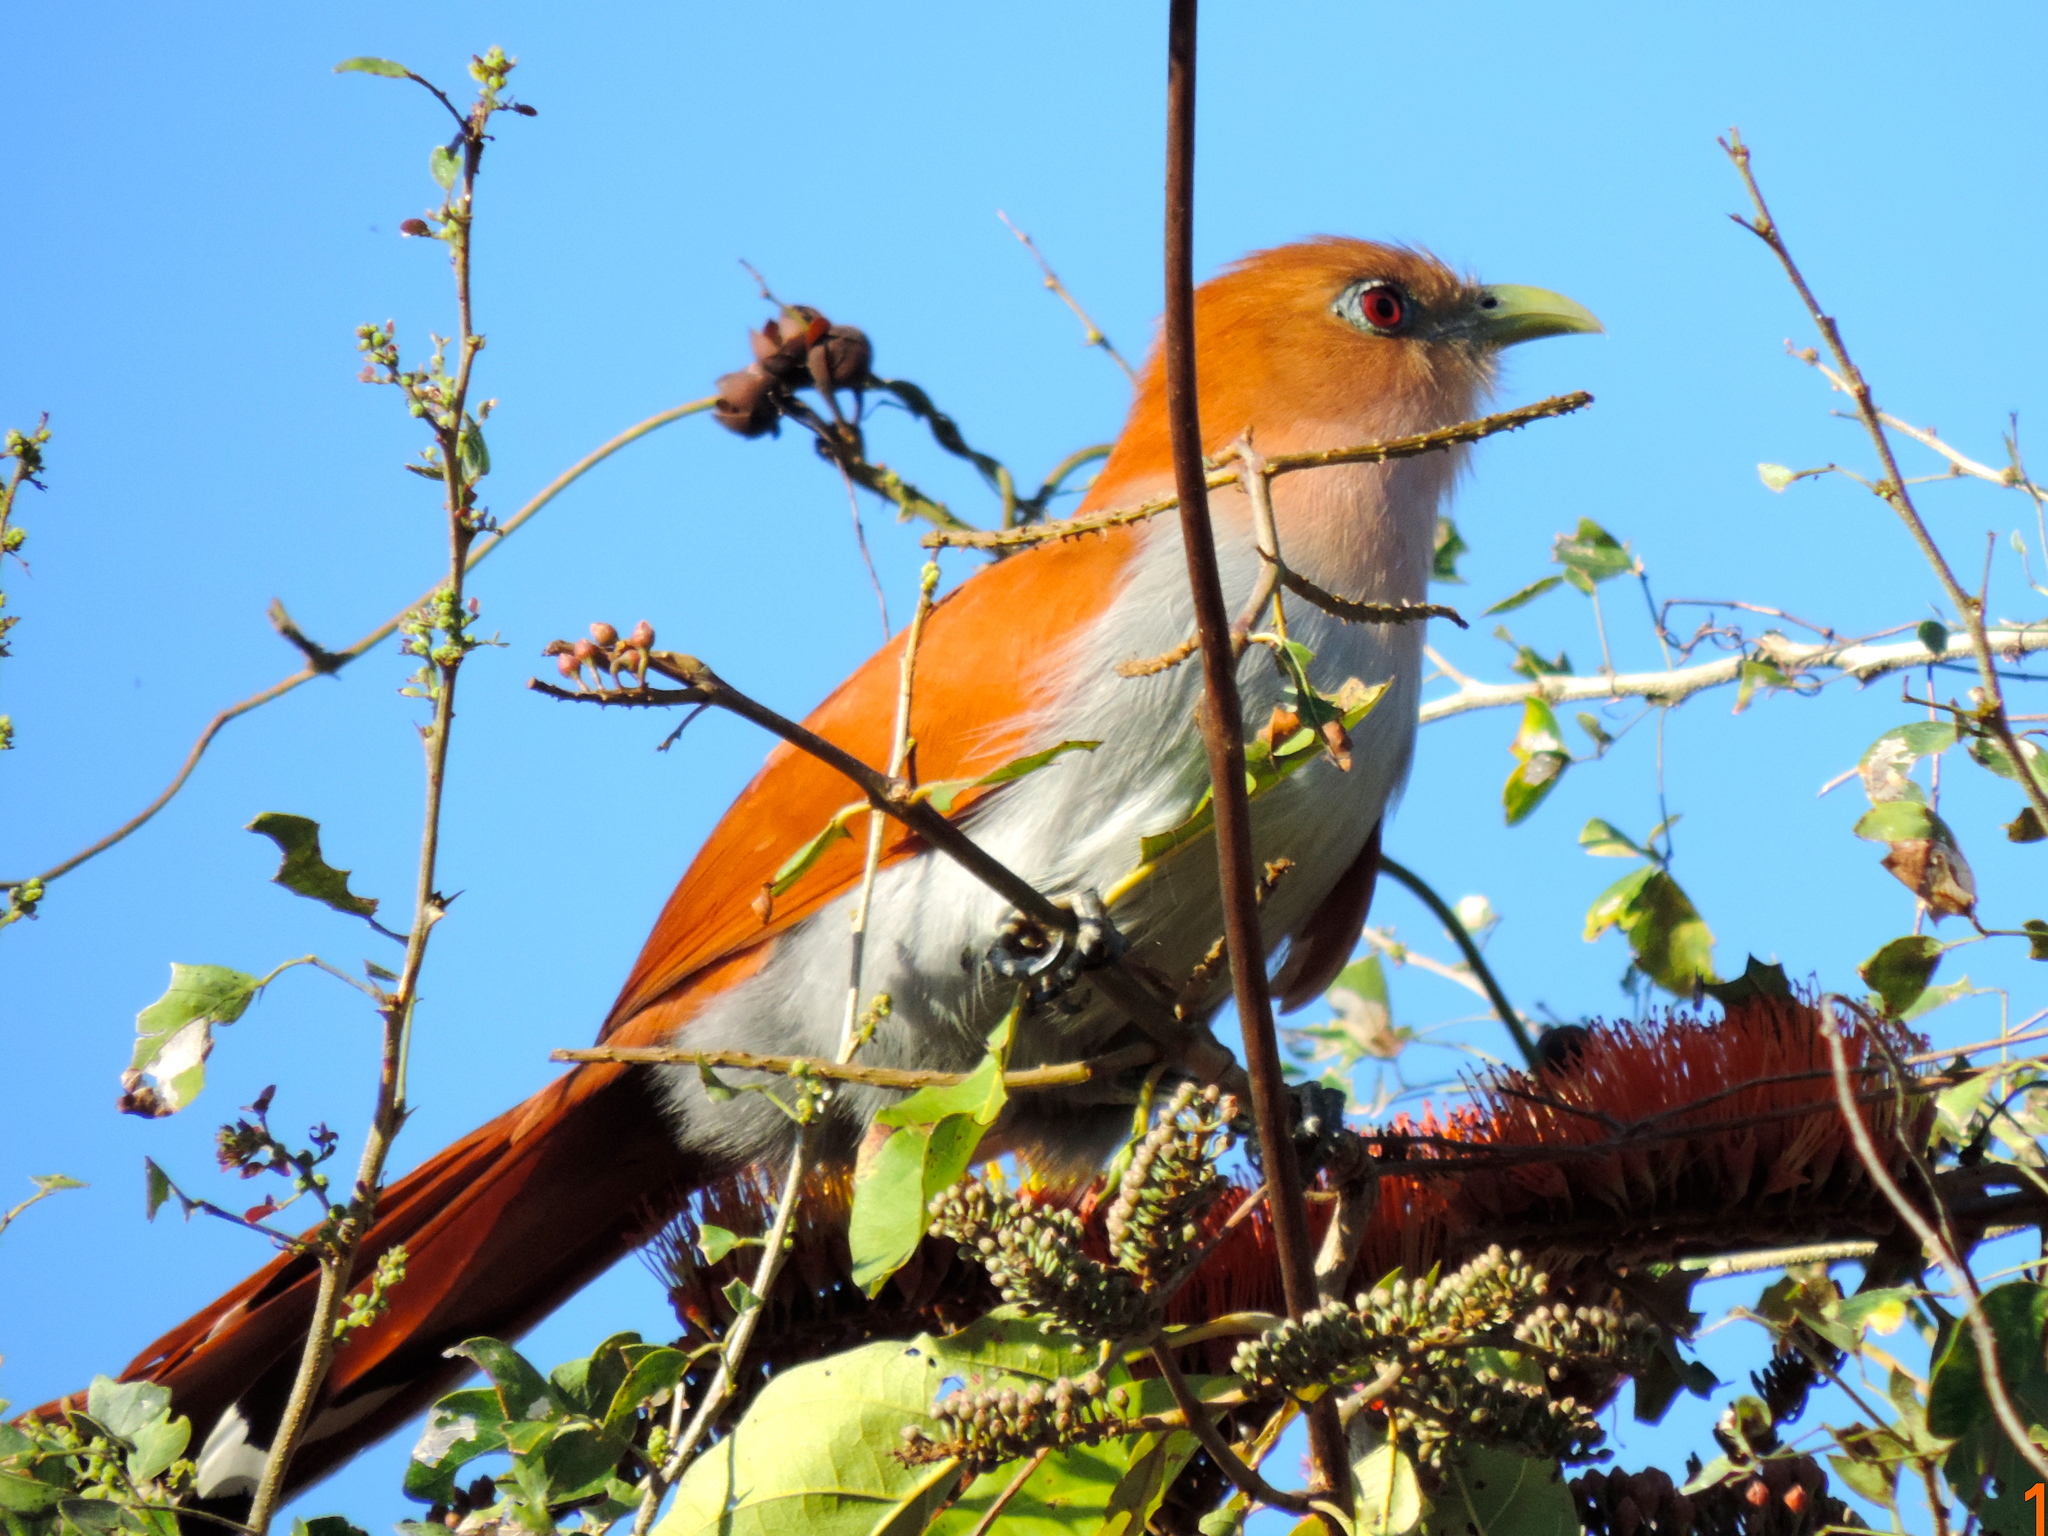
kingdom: Animalia
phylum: Chordata
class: Aves
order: Cuculiformes
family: Cuculidae
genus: Piaya
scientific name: Piaya cayana
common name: Squirrel cuckoo
